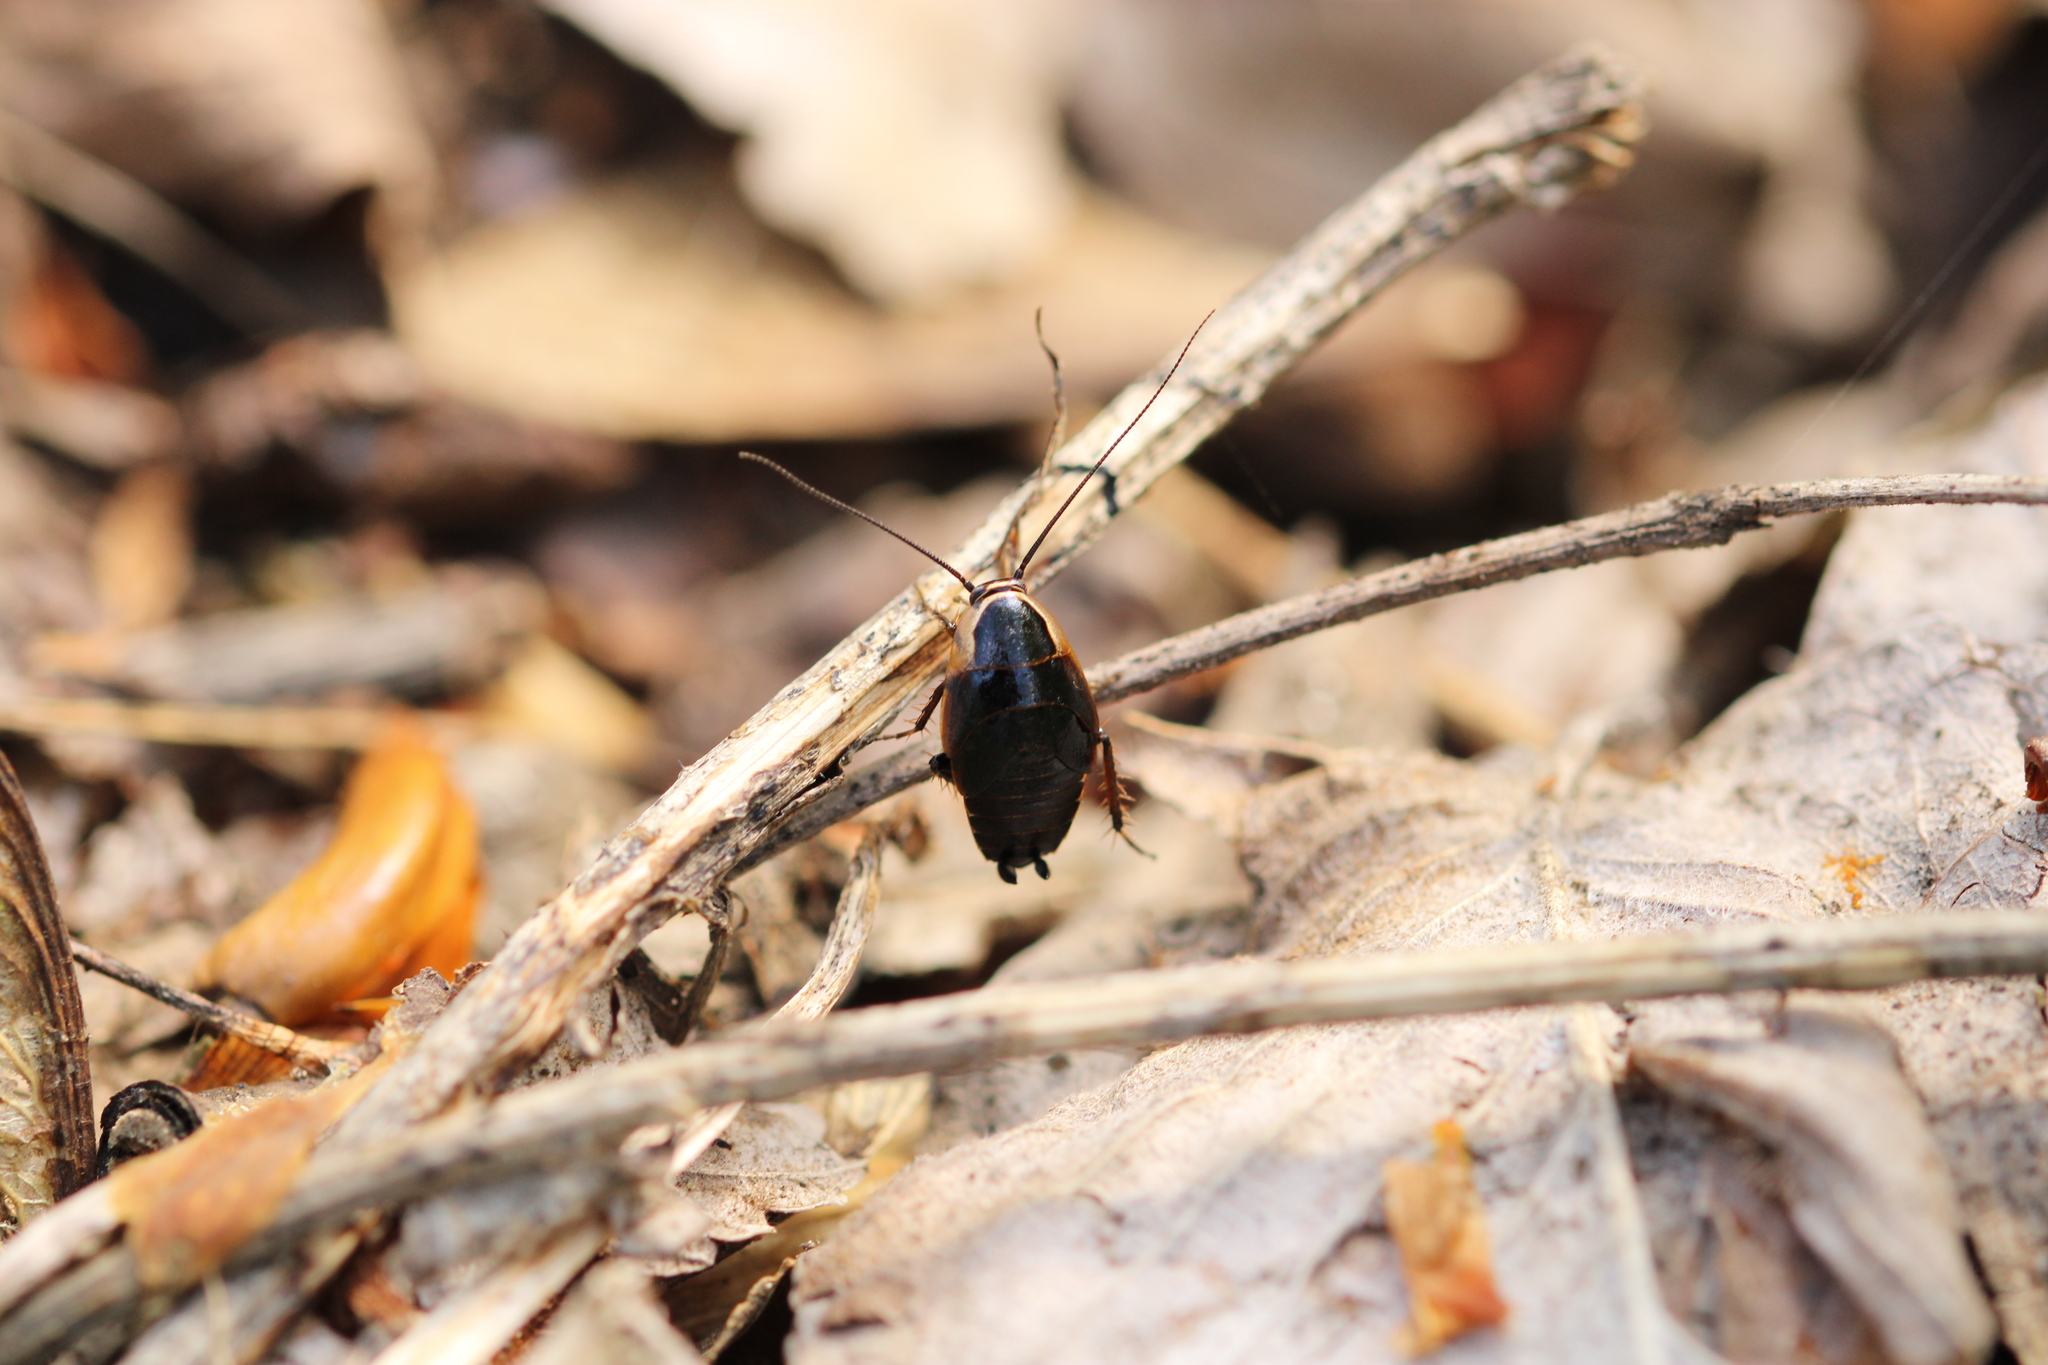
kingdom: Animalia
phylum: Arthropoda
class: Insecta
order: Blattodea
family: Ectobiidae
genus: Ectobius
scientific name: Ectobius sylvestris
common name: Forest cockroach
